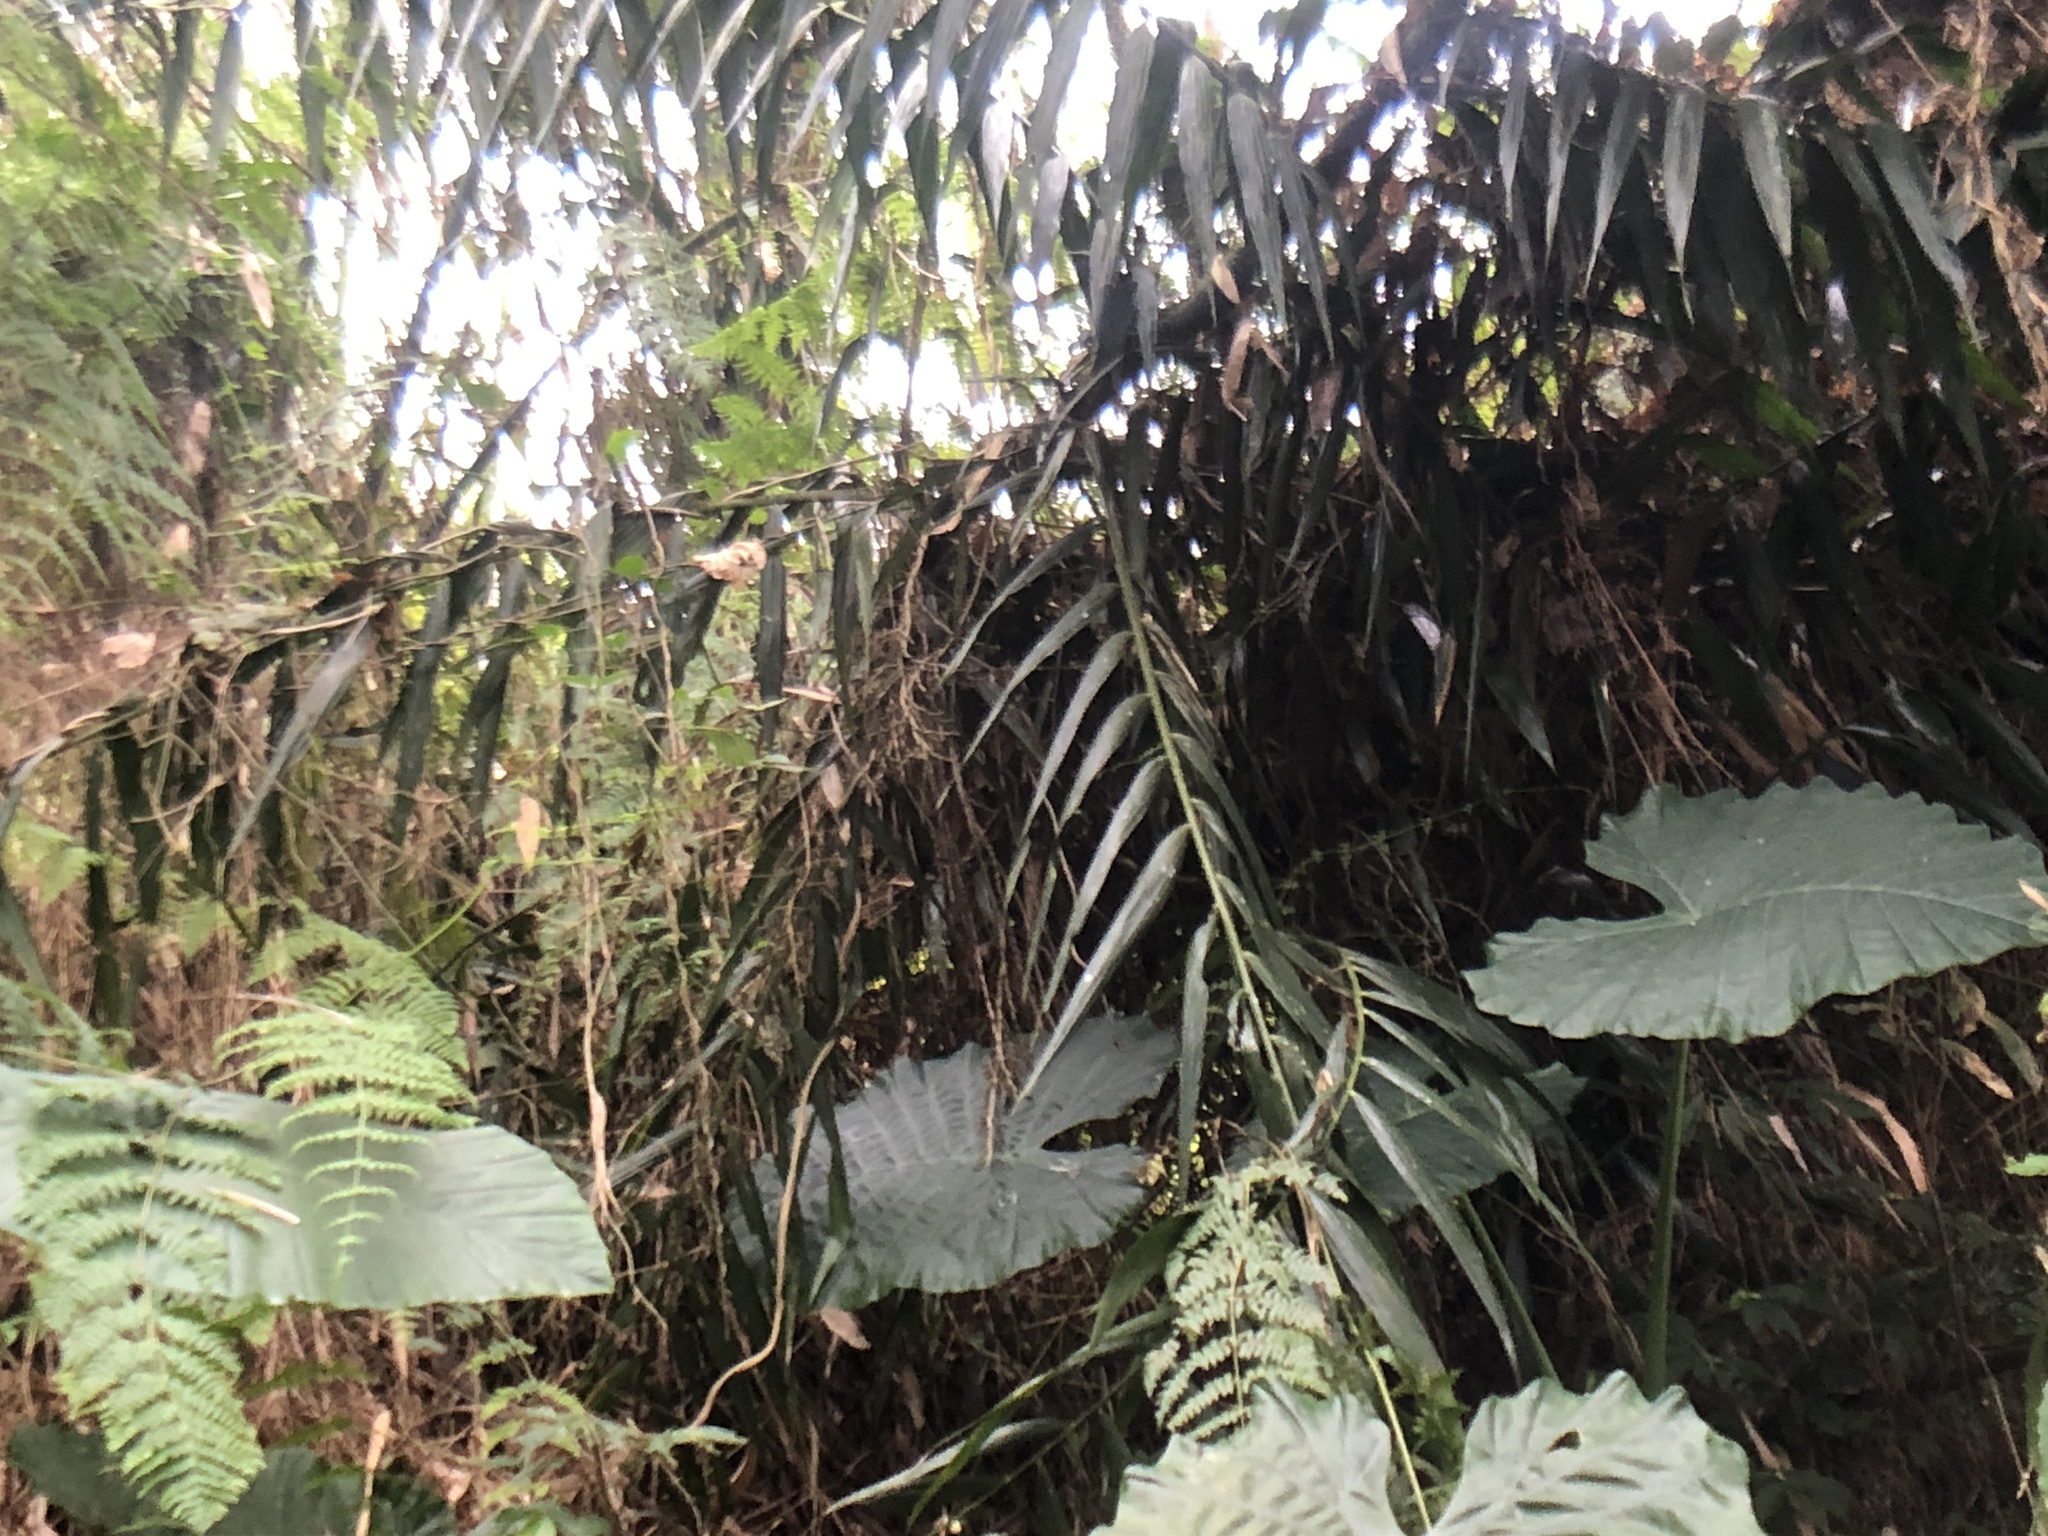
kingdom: Plantae
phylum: Tracheophyta
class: Liliopsida
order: Arecales
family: Arecaceae
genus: Calamus
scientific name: Calamus formosanus
